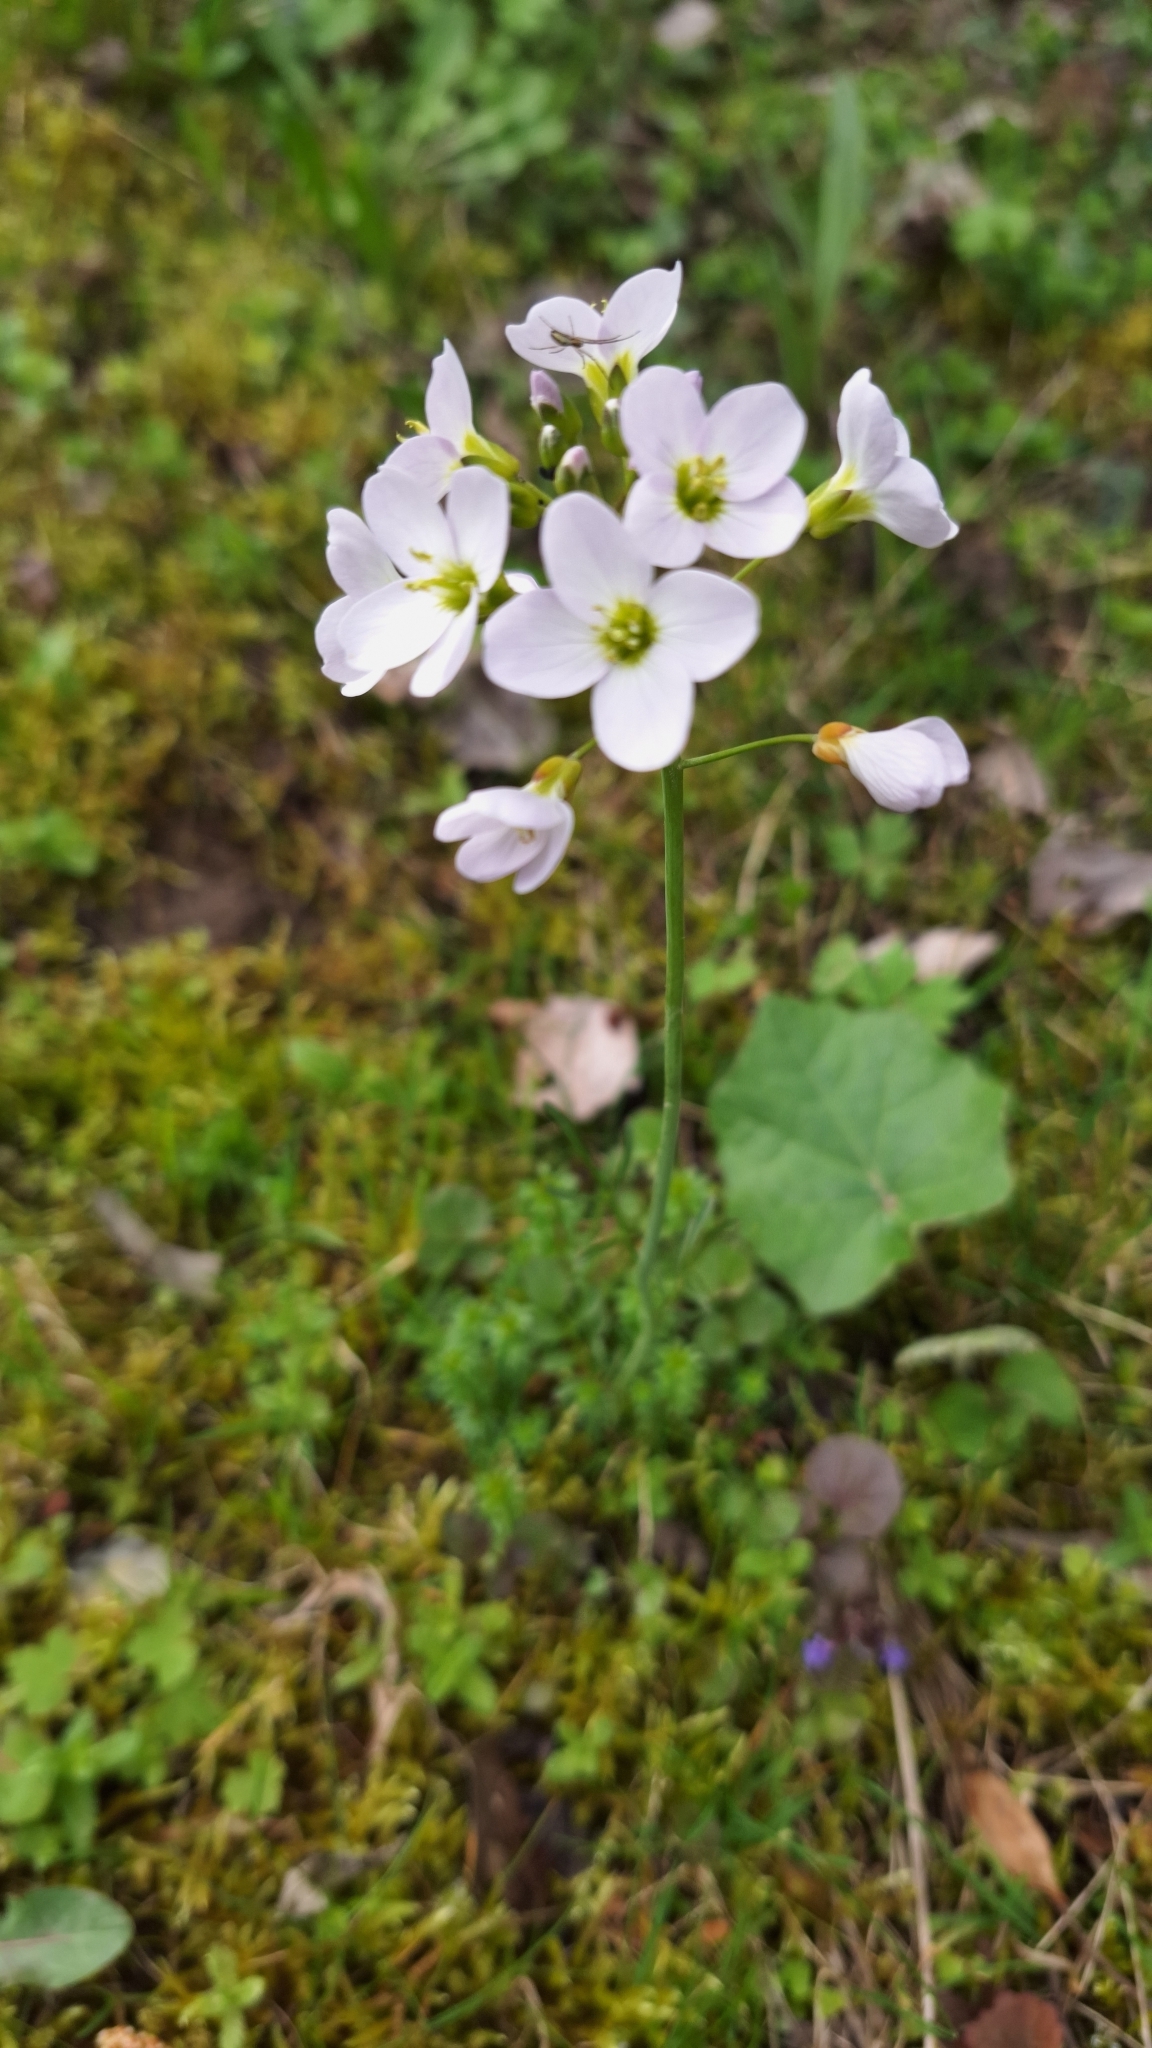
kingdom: Plantae
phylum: Tracheophyta
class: Magnoliopsida
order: Brassicales
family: Brassicaceae
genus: Cardamine
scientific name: Cardamine pratensis
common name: Cuckoo flower
